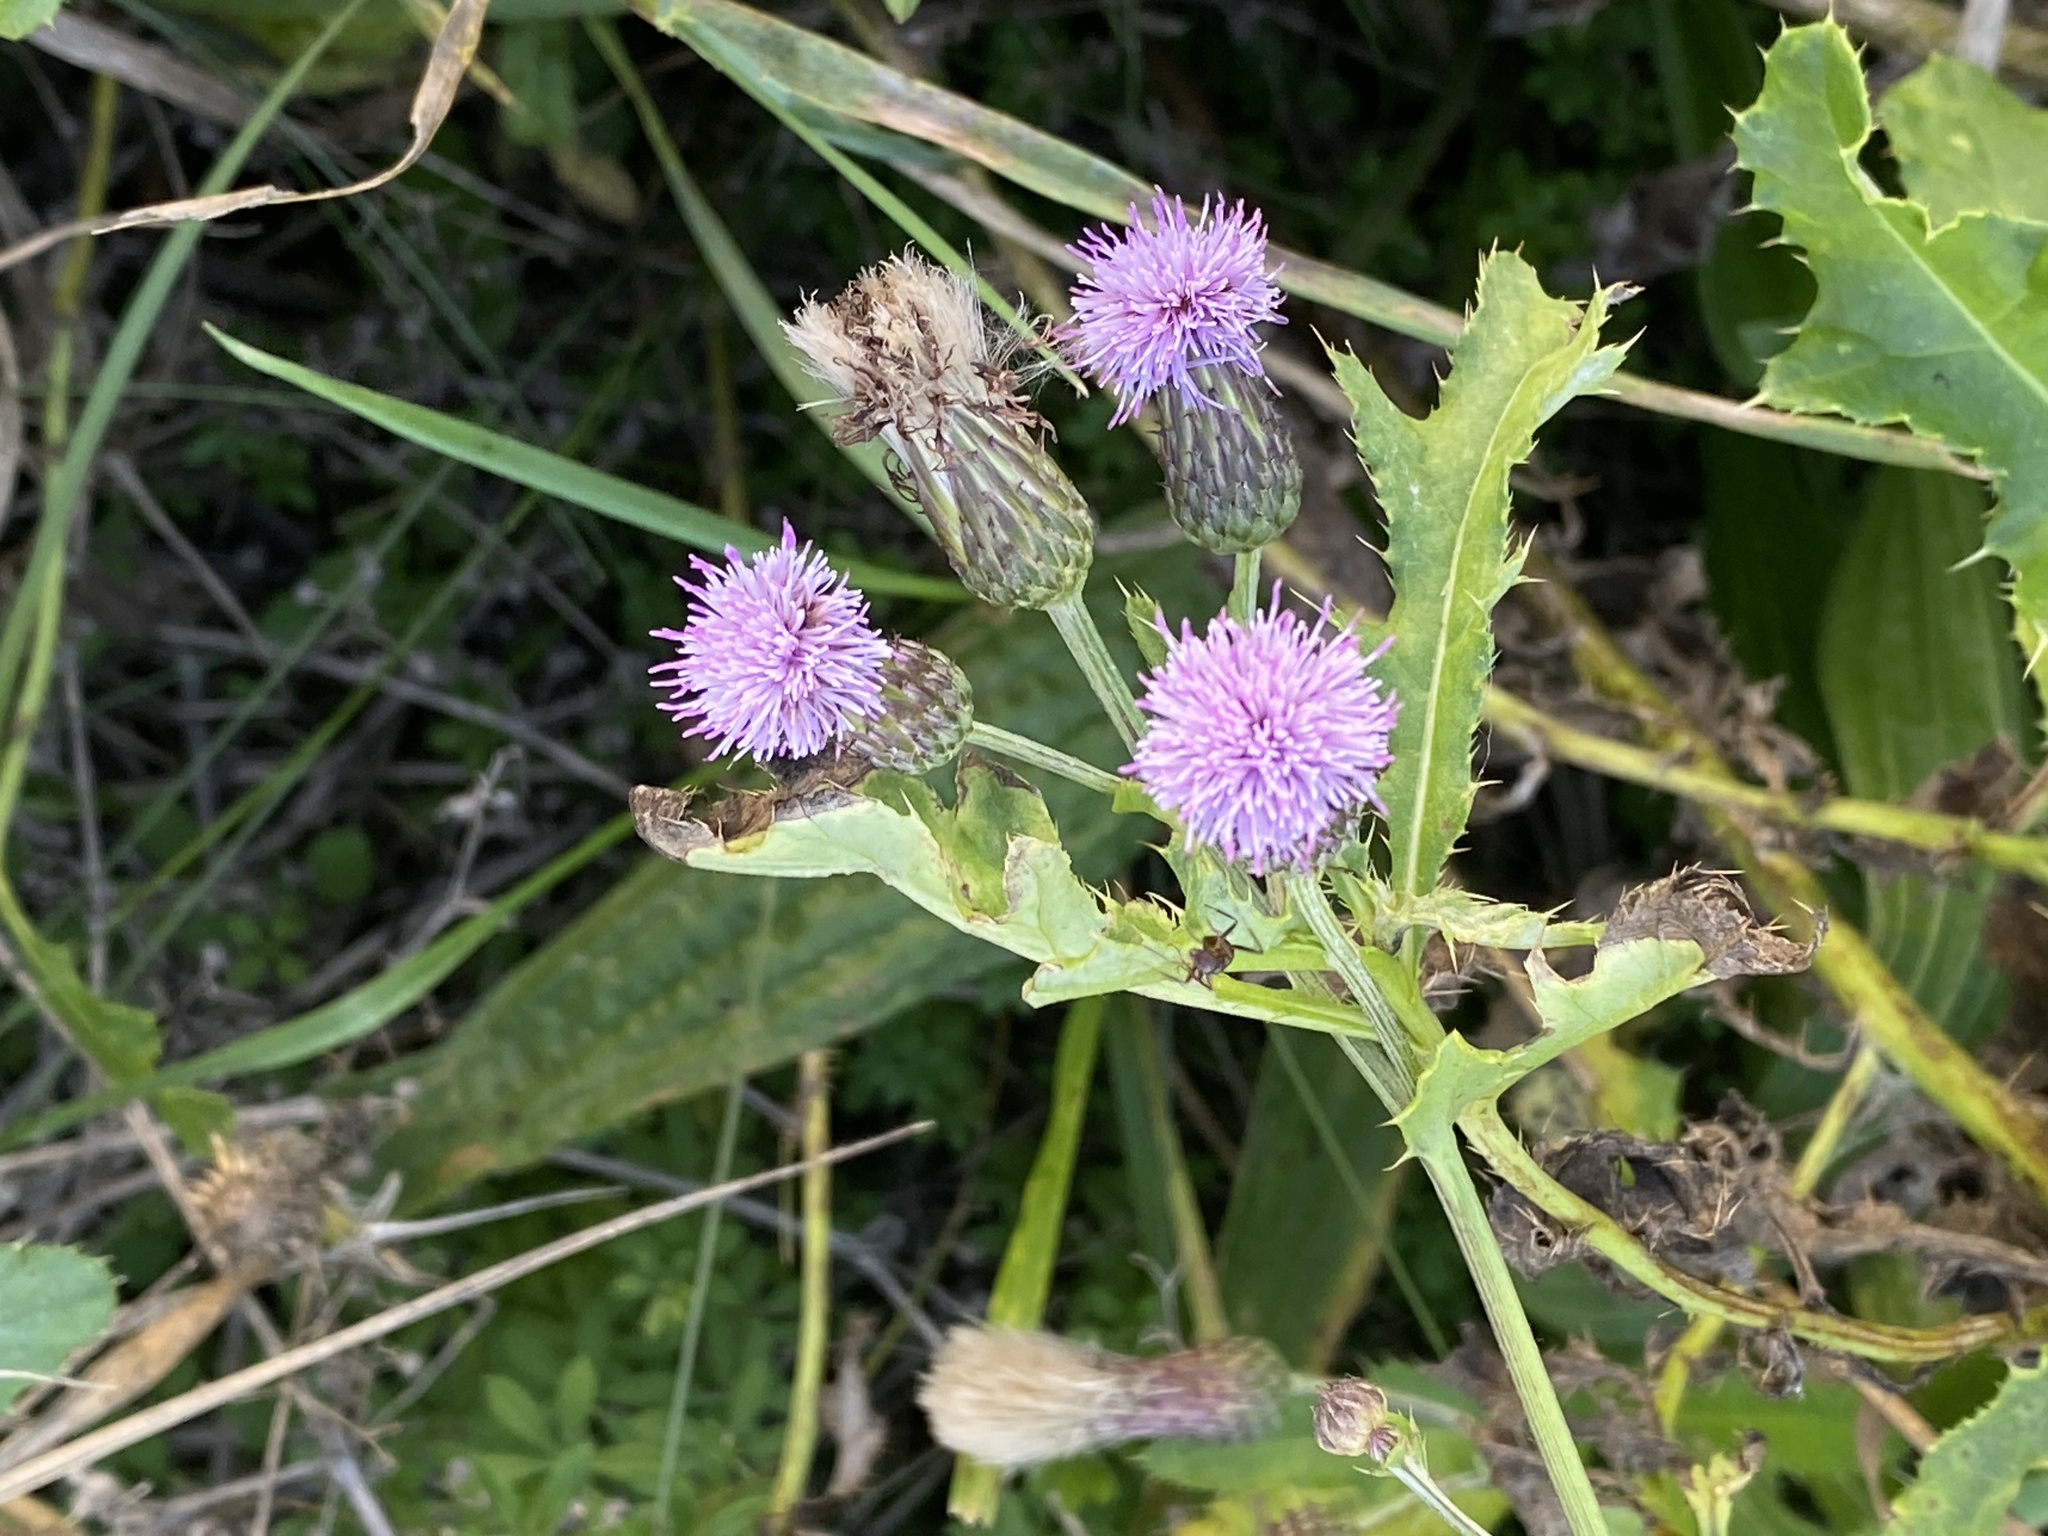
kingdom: Plantae
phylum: Tracheophyta
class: Magnoliopsida
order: Asterales
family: Asteraceae
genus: Cirsium
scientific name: Cirsium arvense
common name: Creeping thistle
